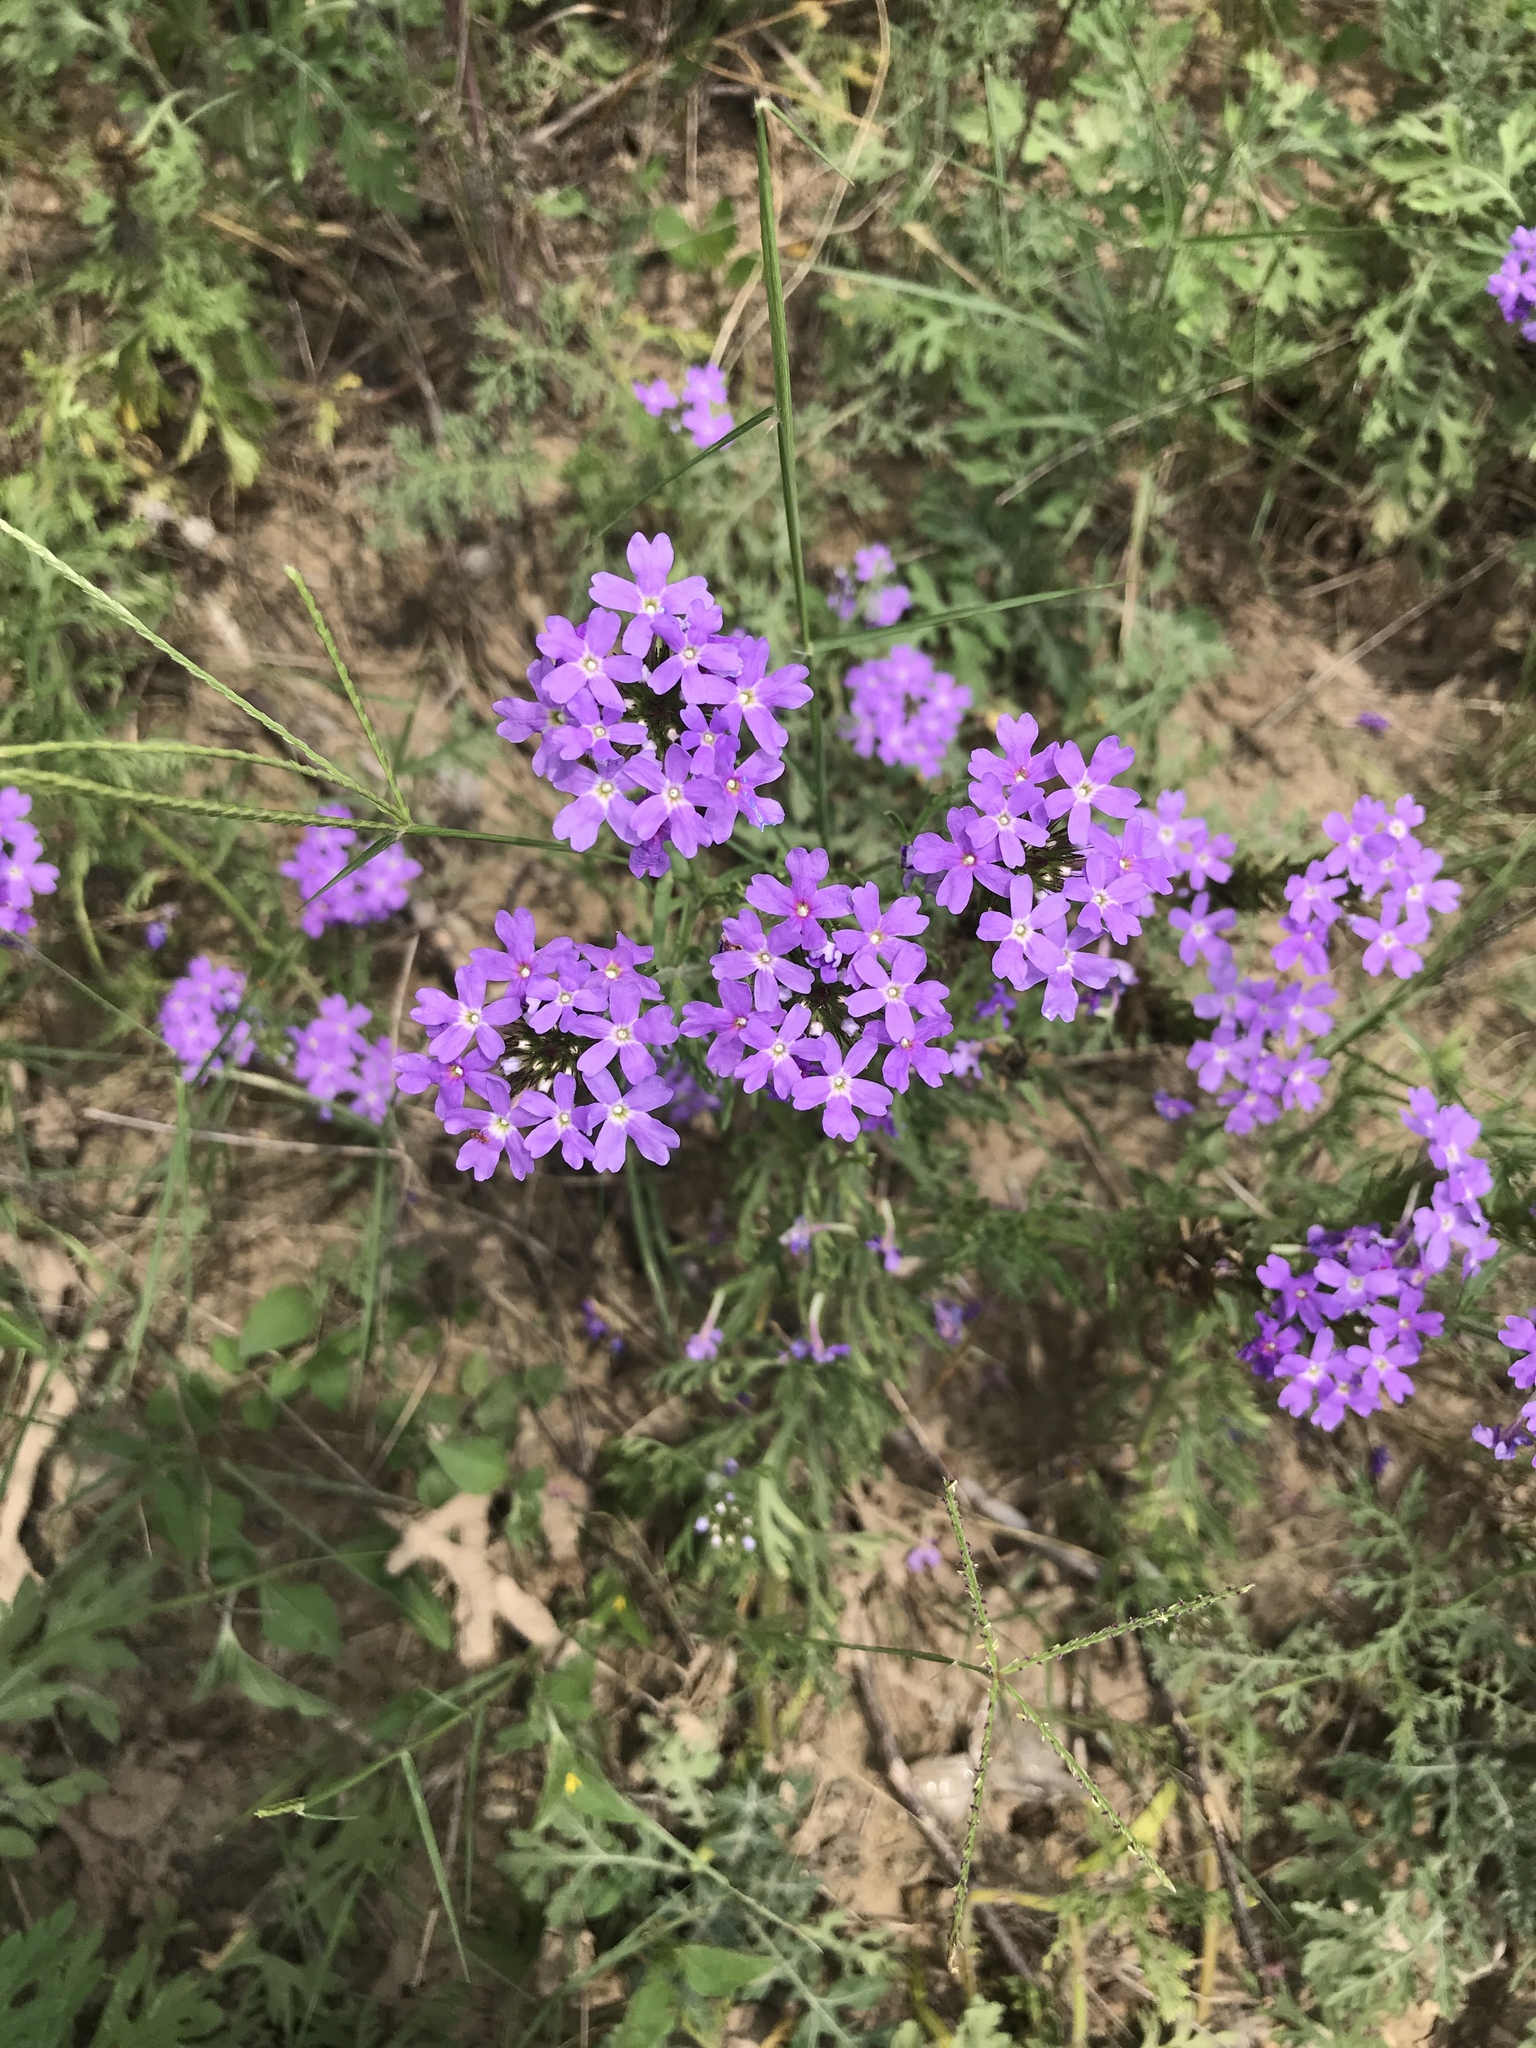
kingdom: Plantae
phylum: Tracheophyta
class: Magnoliopsida
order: Lamiales
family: Verbenaceae
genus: Verbena
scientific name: Verbena bipinnatifida
